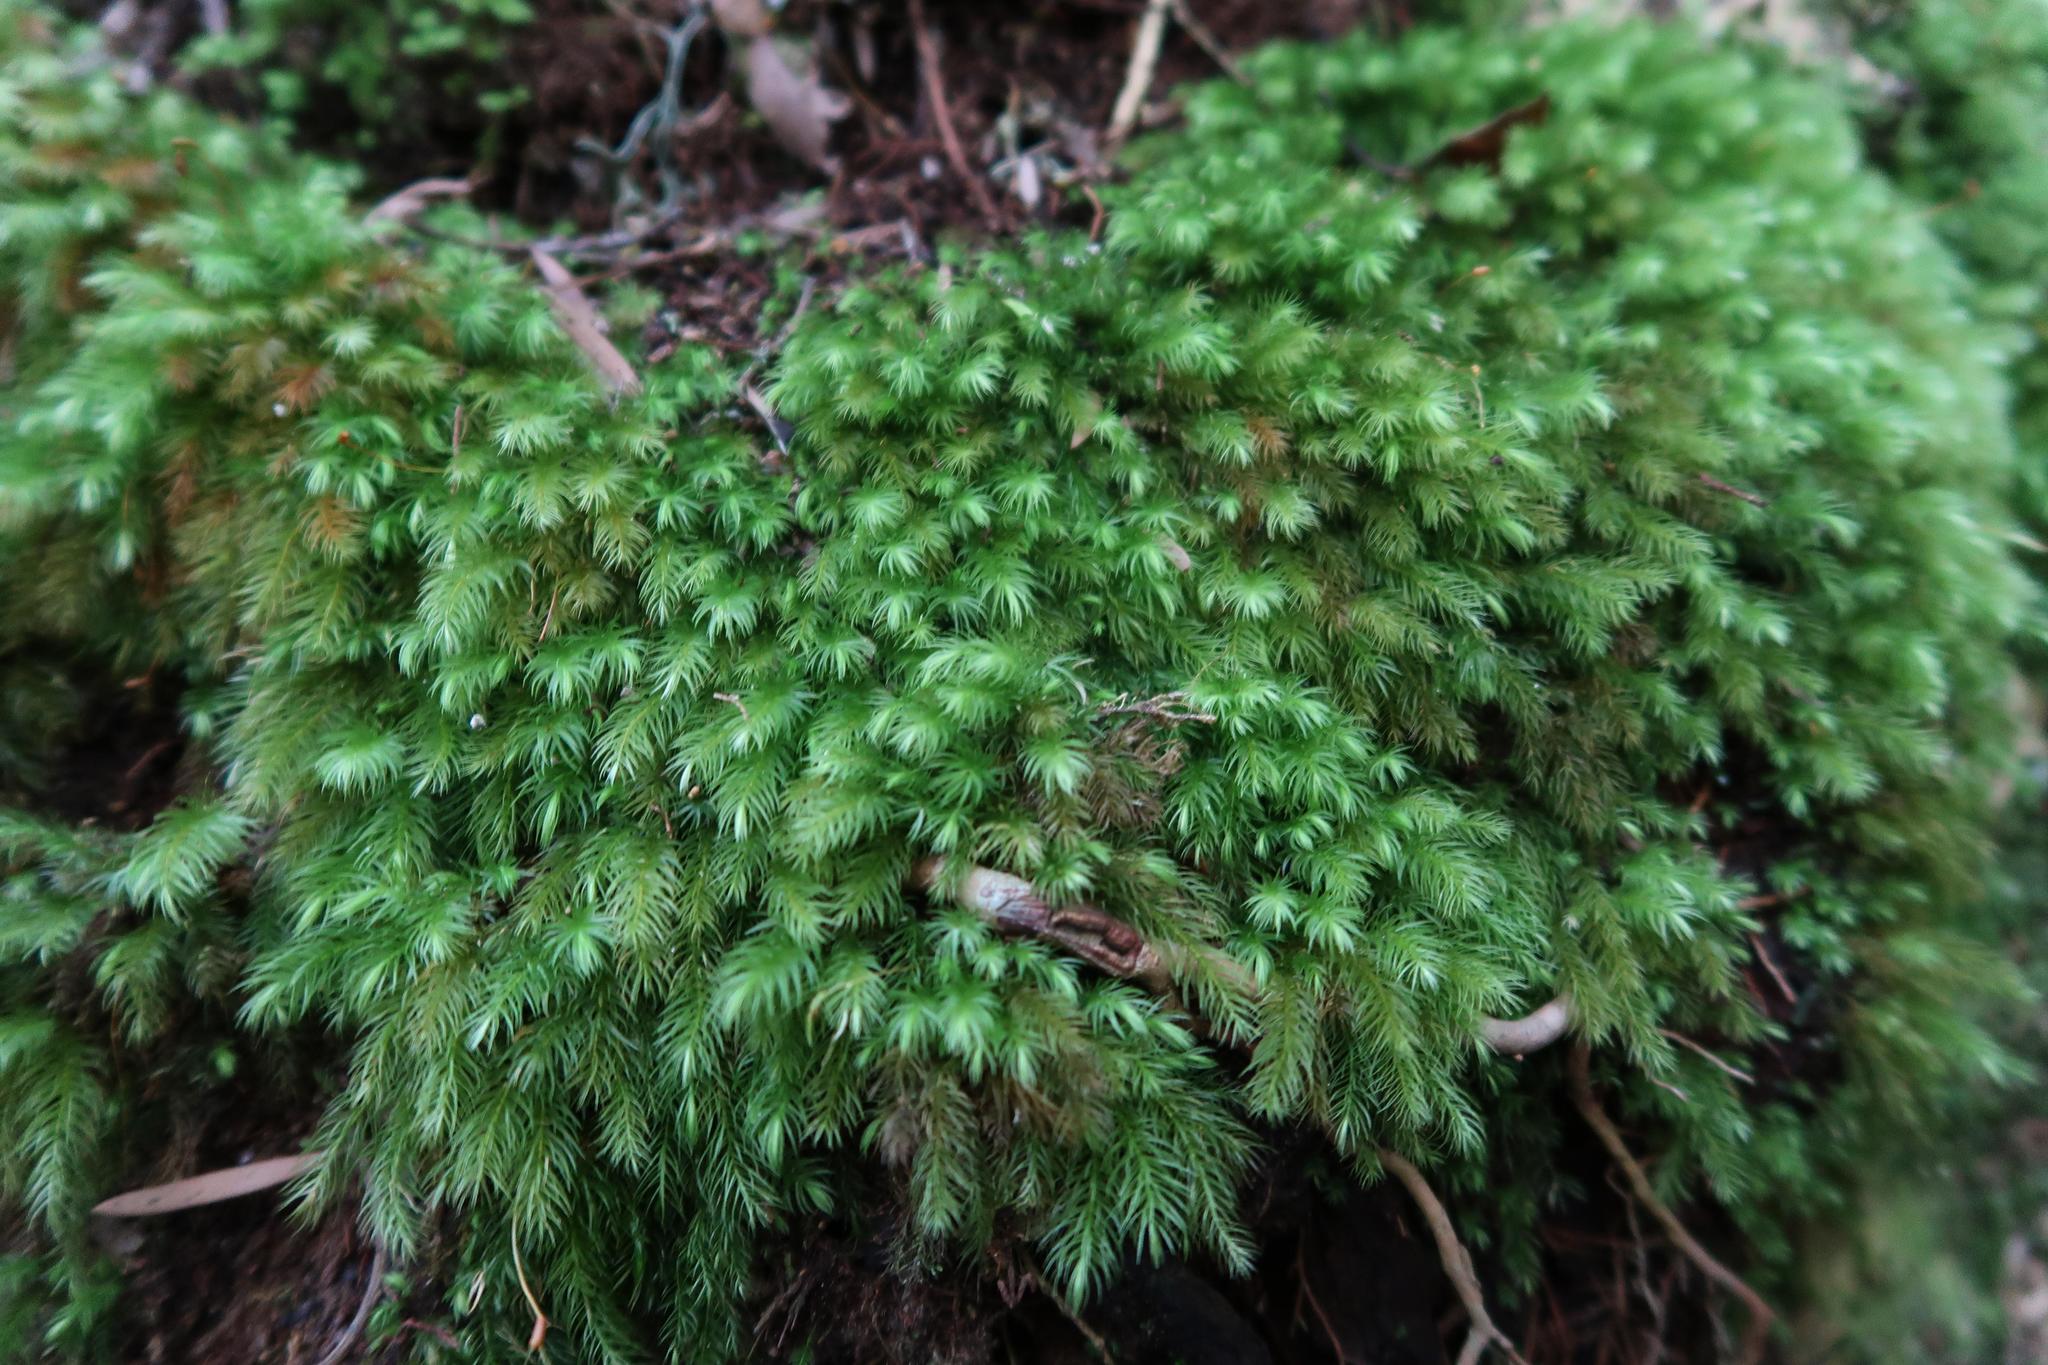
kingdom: Plantae
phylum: Bryophyta
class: Bryopsida
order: Rhizogoniales
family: Calomniaceae
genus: Pyrrhobryum
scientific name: Pyrrhobryum spiniforme
